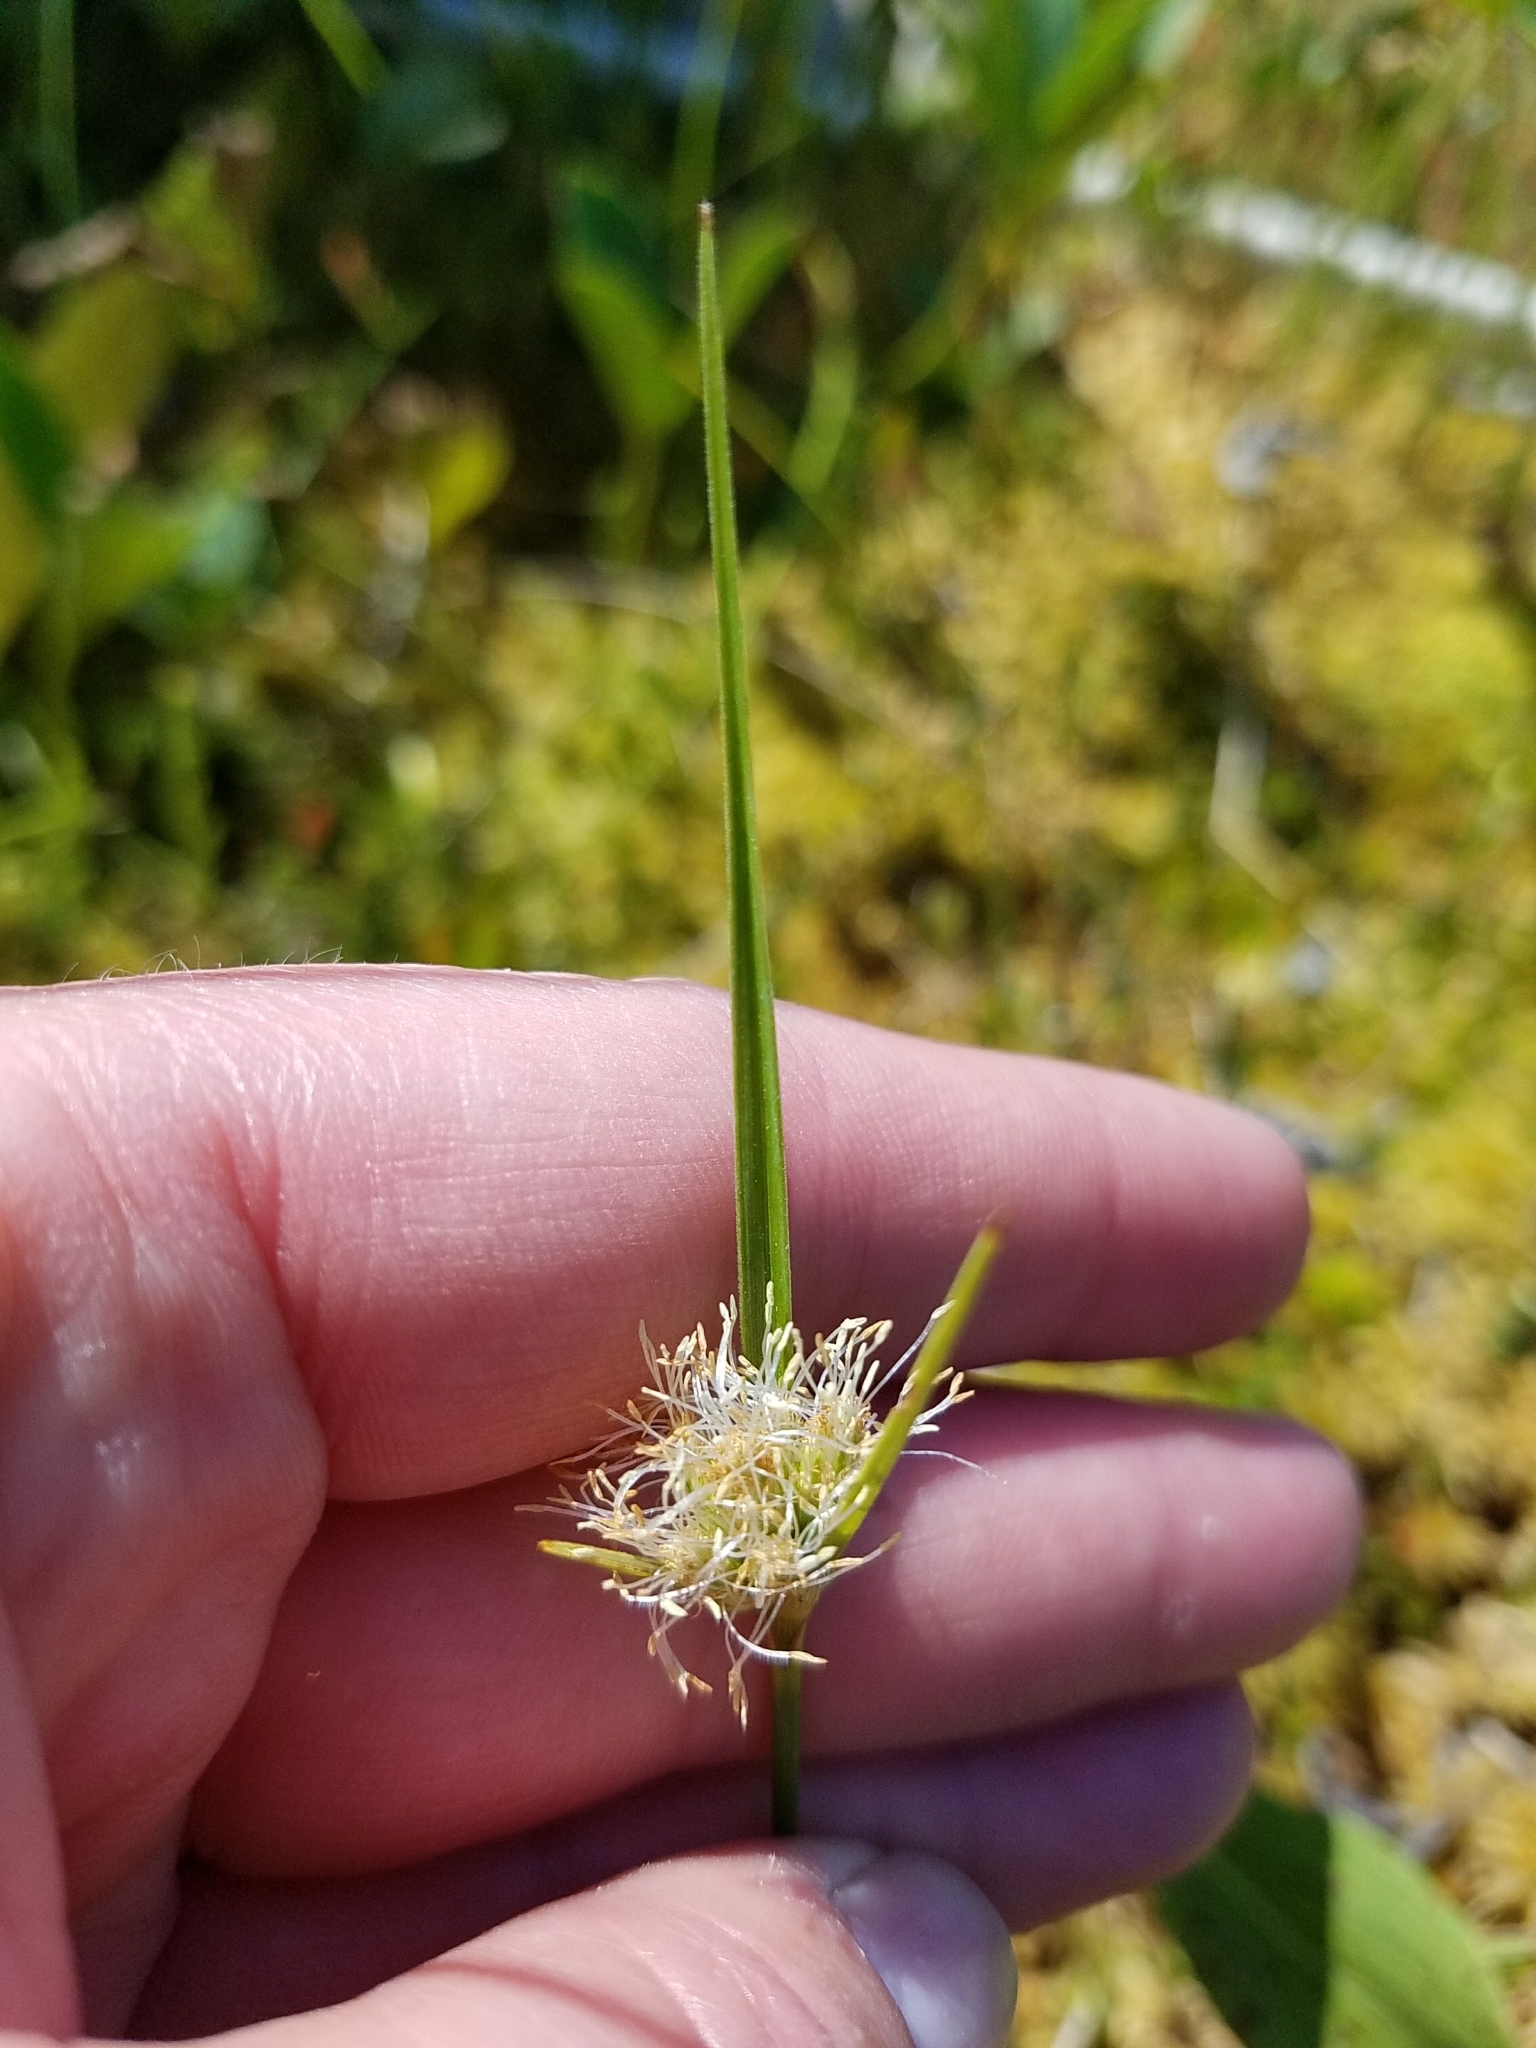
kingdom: Plantae
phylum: Tracheophyta
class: Liliopsida
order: Poales
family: Cyperaceae
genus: Eriophorum
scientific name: Eriophorum virginicum
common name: Tawny cottongrass
